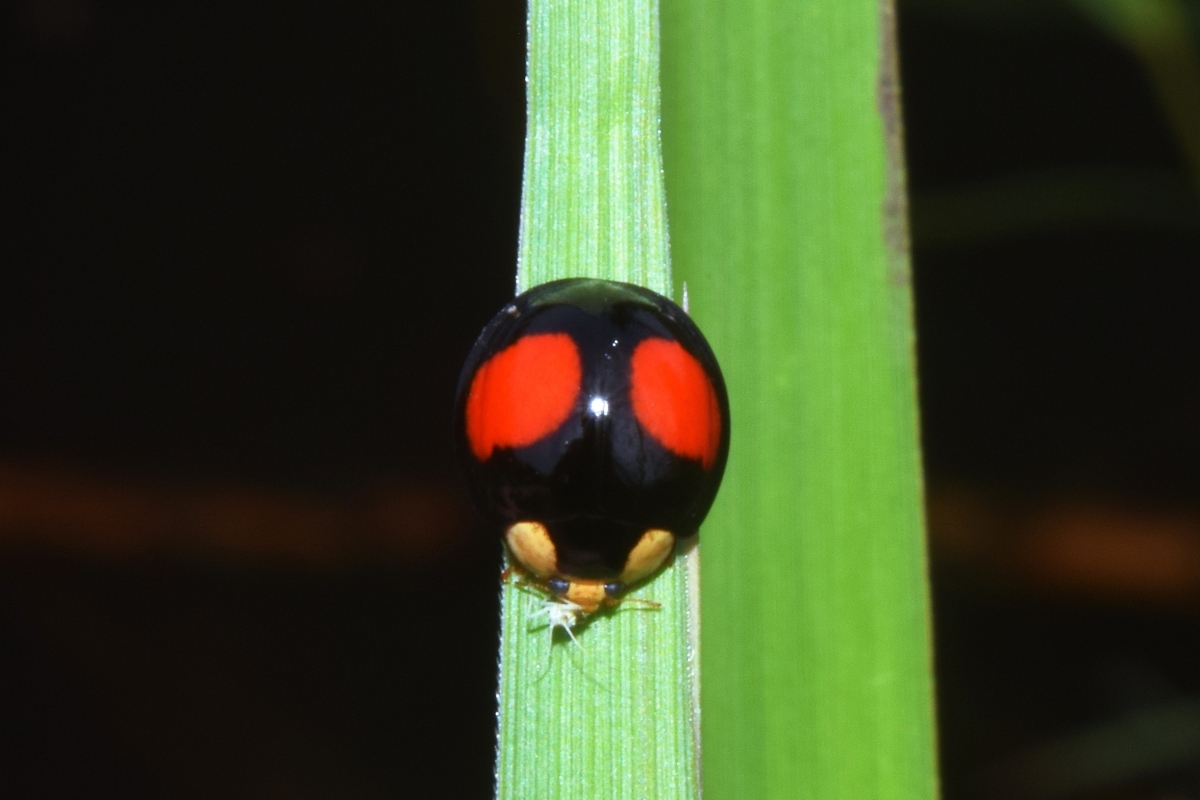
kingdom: Animalia
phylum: Arthropoda
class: Insecta
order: Coleoptera
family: Coccinellidae
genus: Coelophora
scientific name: Coelophora saucia
